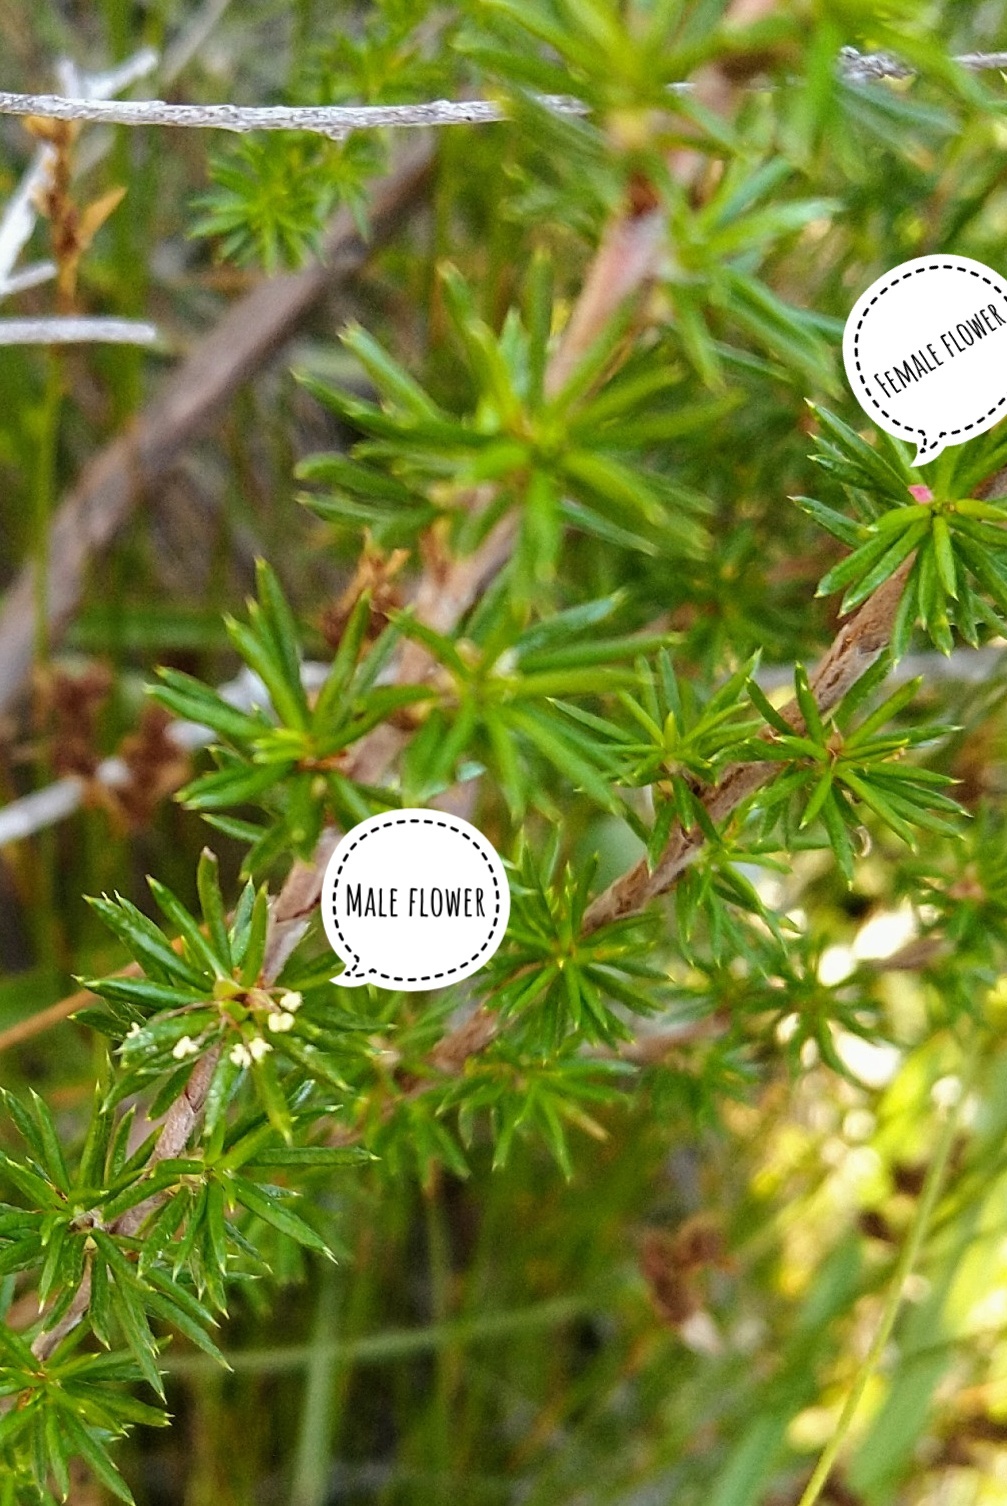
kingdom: Plantae
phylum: Tracheophyta
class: Magnoliopsida
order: Rosales
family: Rosaceae
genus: Cliffortia
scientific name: Cliffortia stricta
